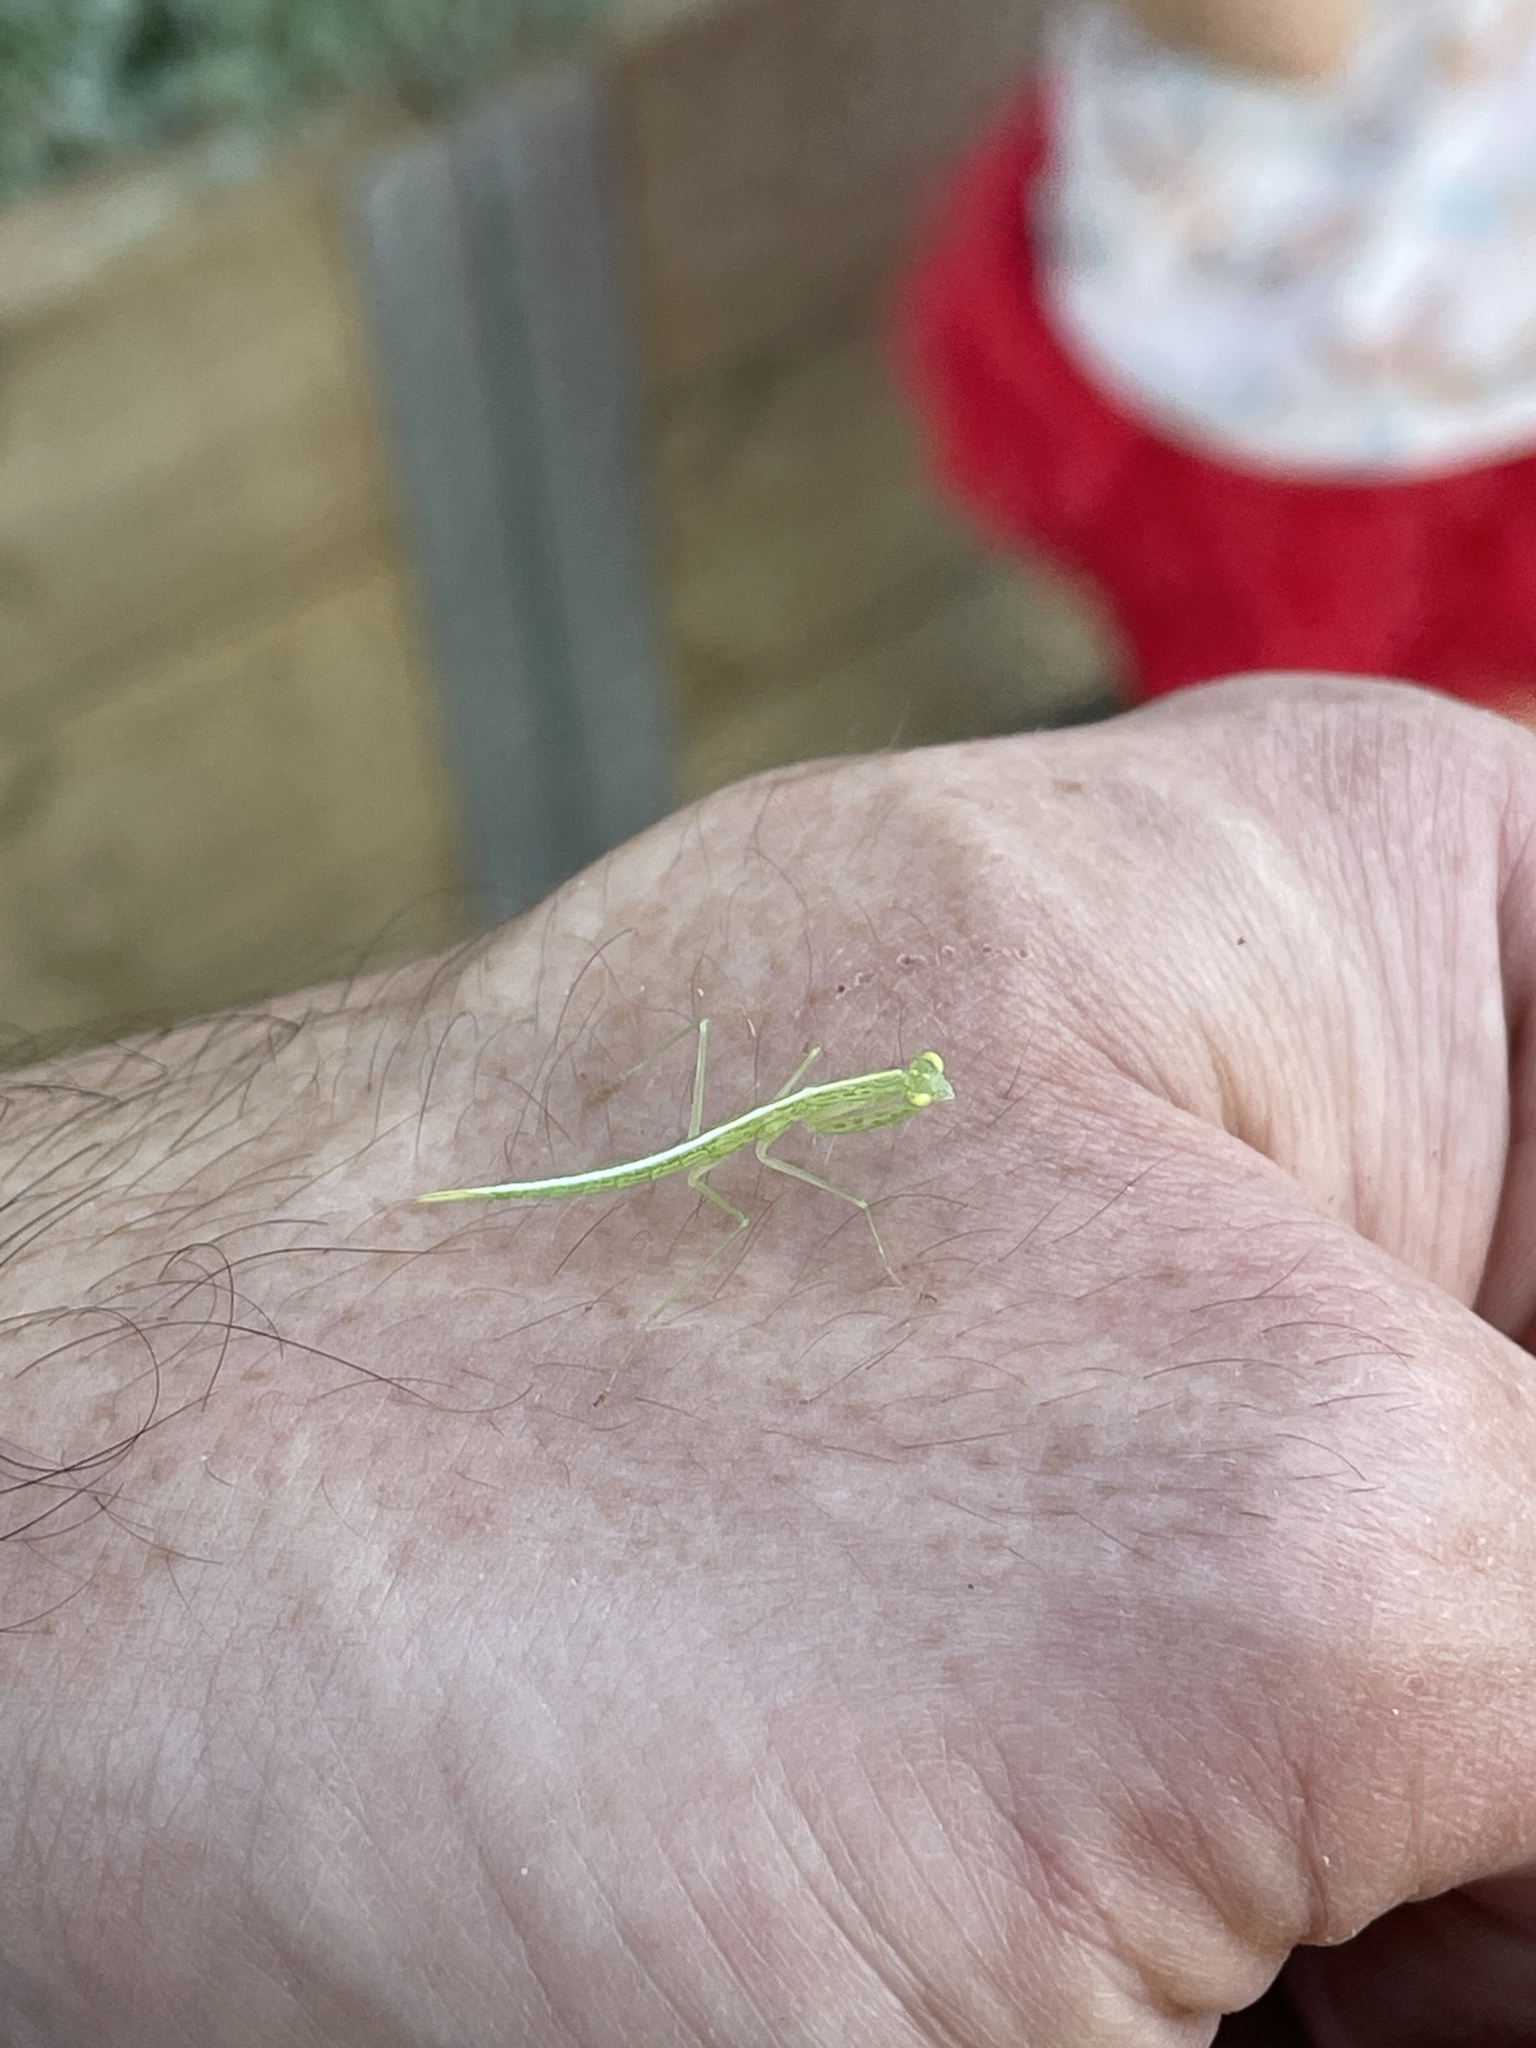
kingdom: Animalia
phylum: Arthropoda
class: Insecta
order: Mantodea
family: Nanomantidae
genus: Kongobatha
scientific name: Kongobatha diademata
